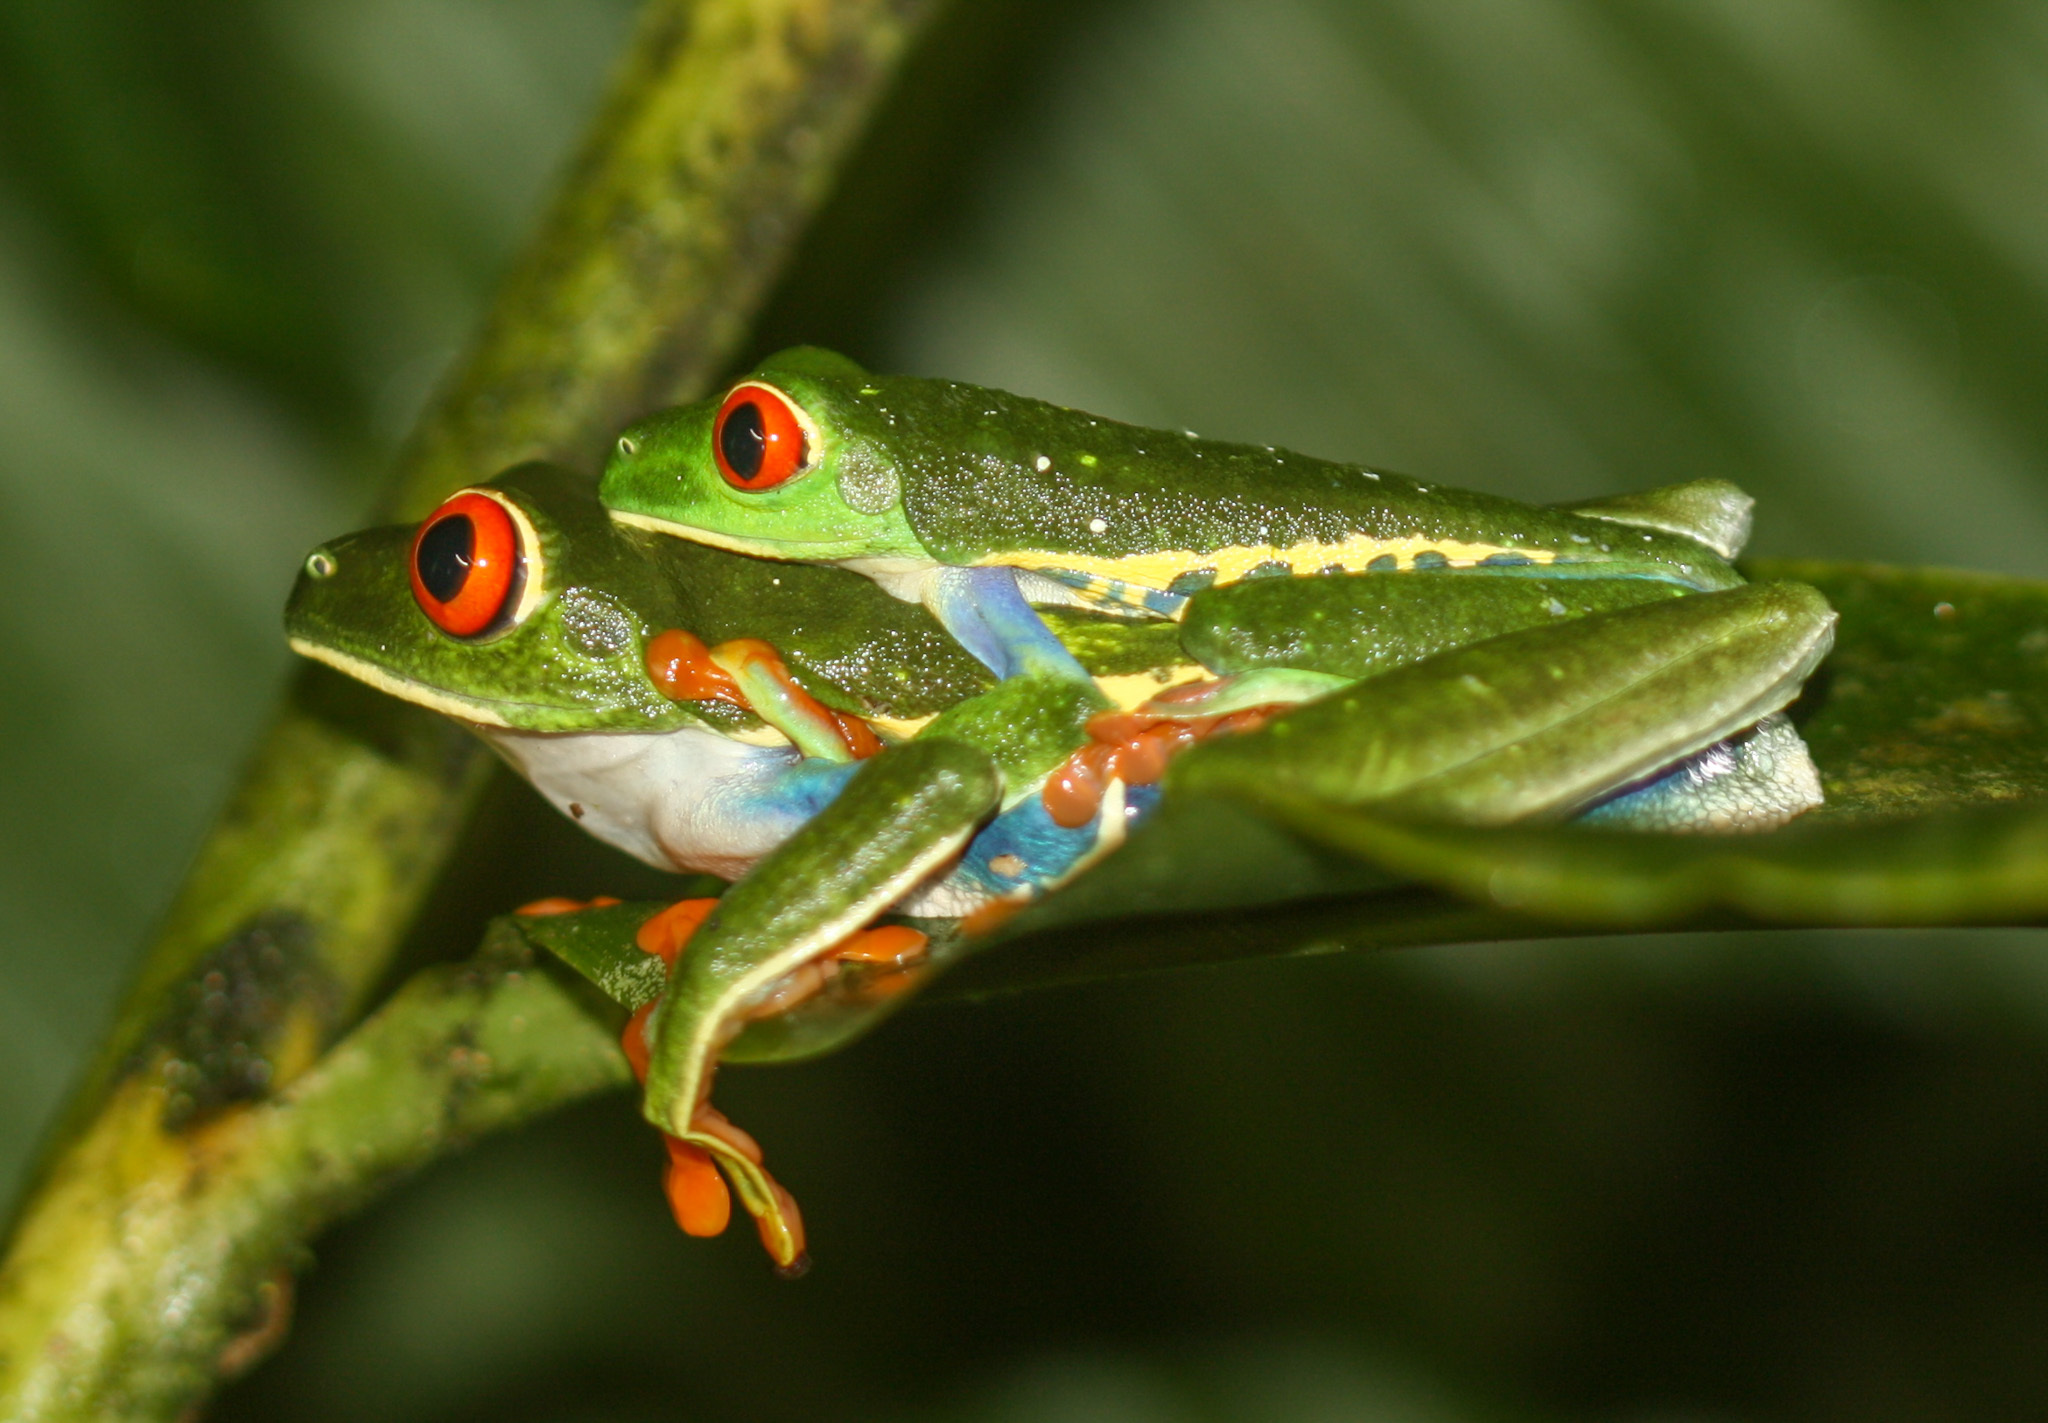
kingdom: Animalia
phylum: Chordata
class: Amphibia
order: Anura
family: Phyllomedusidae
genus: Agalychnis
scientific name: Agalychnis callidryas
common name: Red-eyed treefrog
